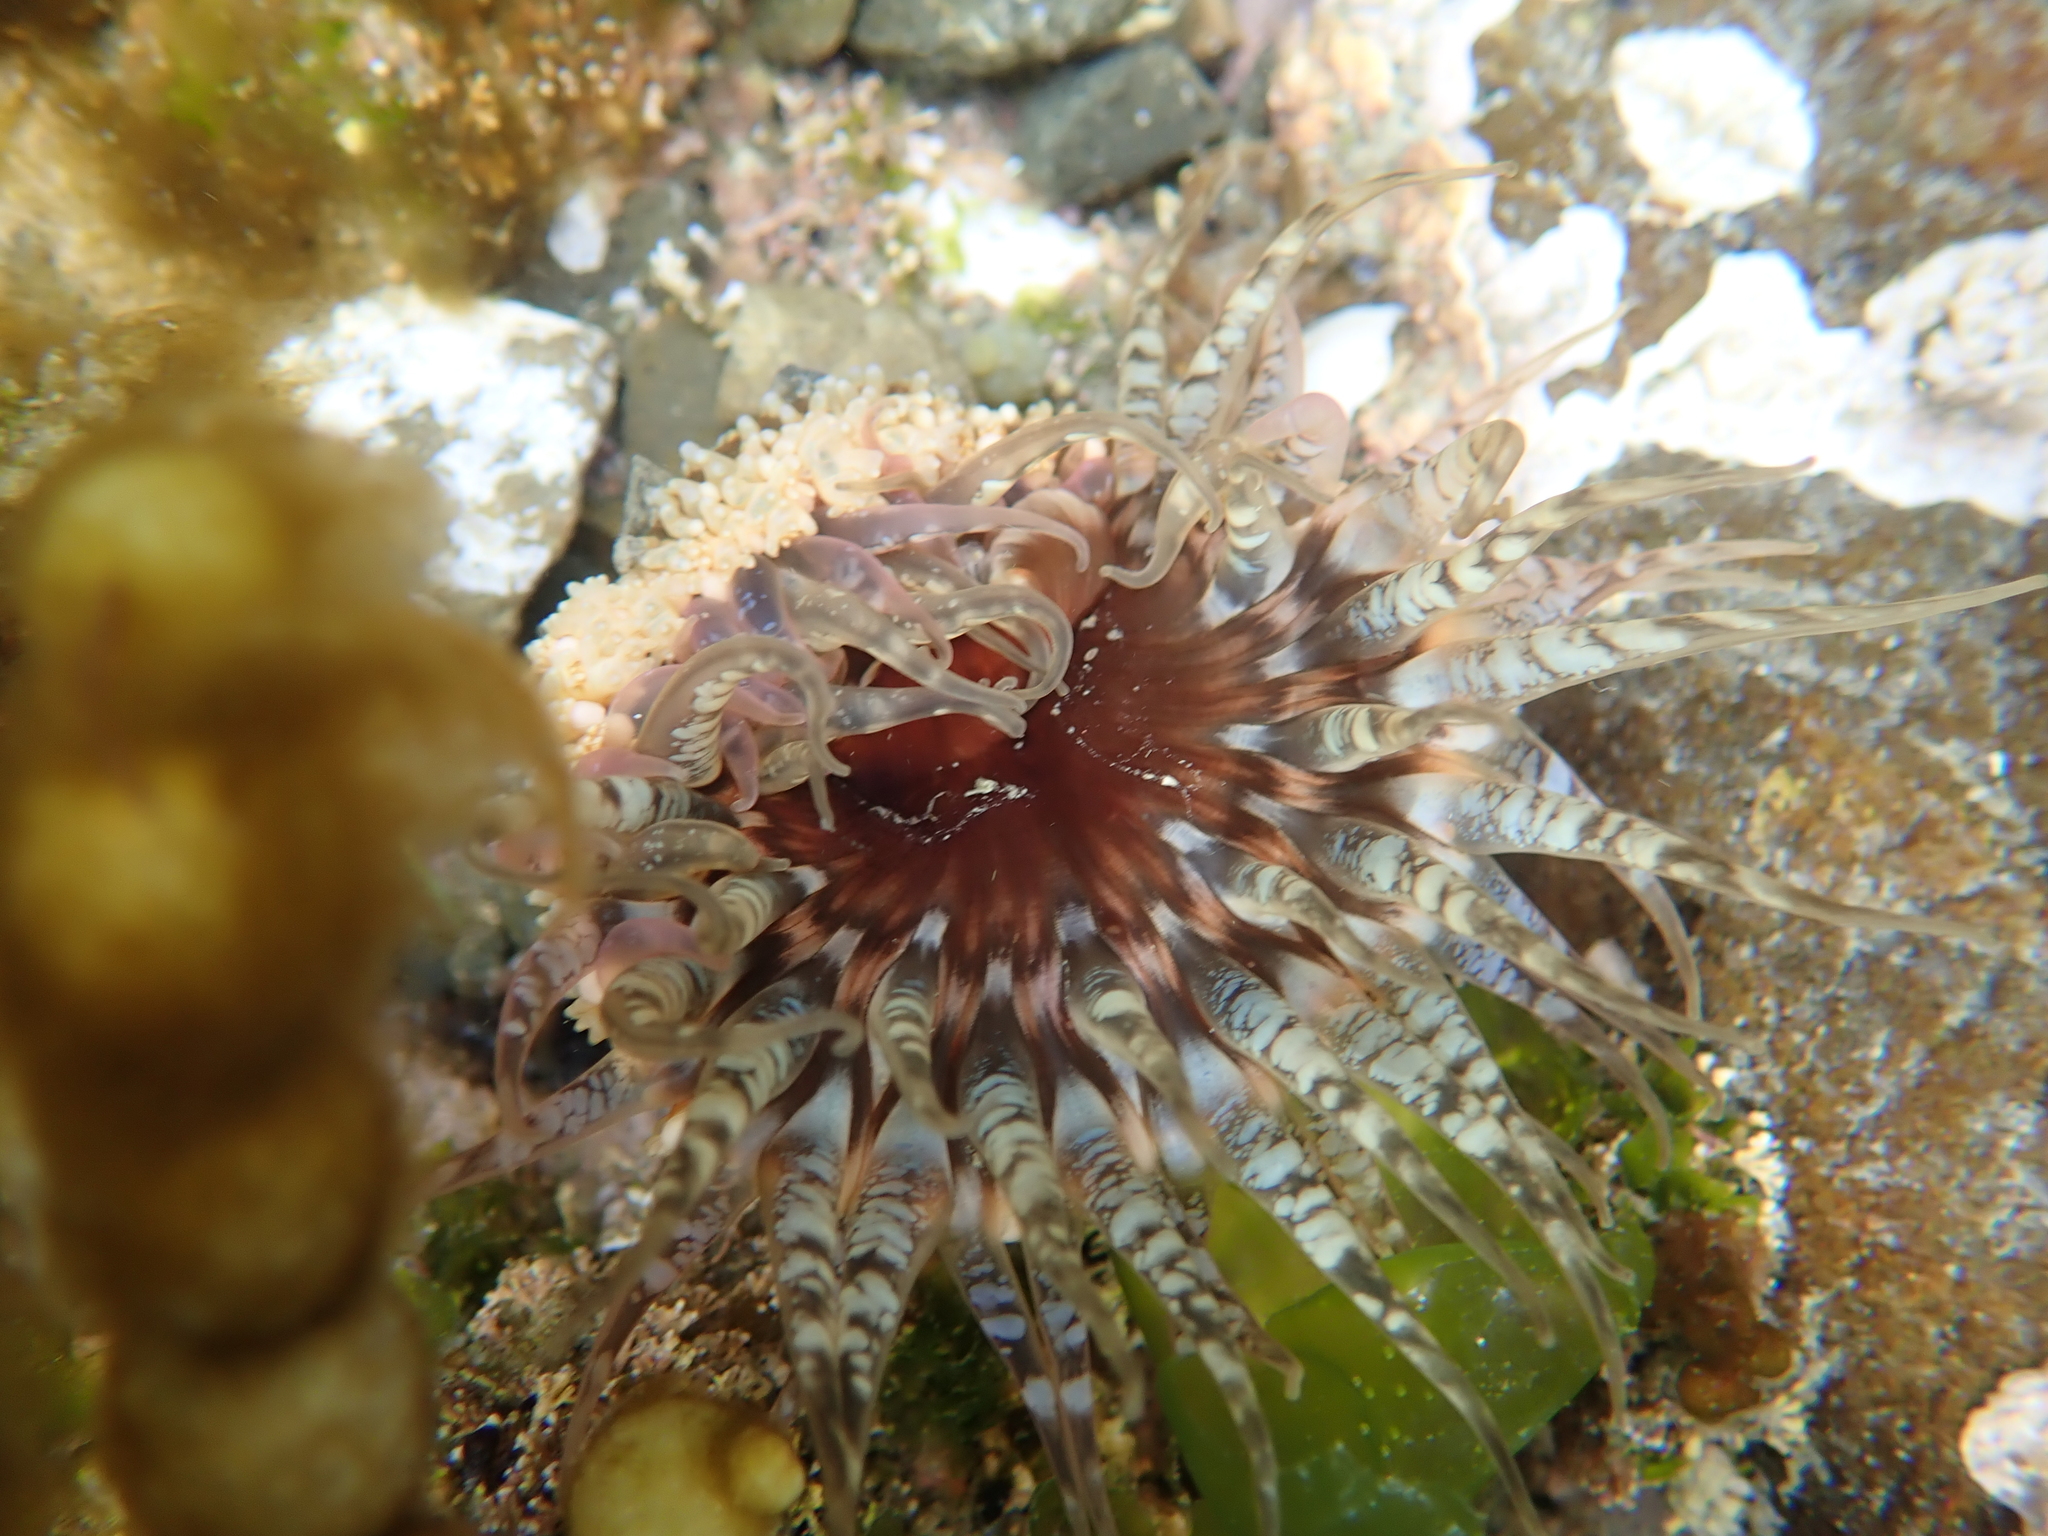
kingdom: Animalia
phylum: Cnidaria
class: Anthozoa
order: Actiniaria
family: Actiniidae
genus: Oulactis
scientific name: Oulactis muscosa
